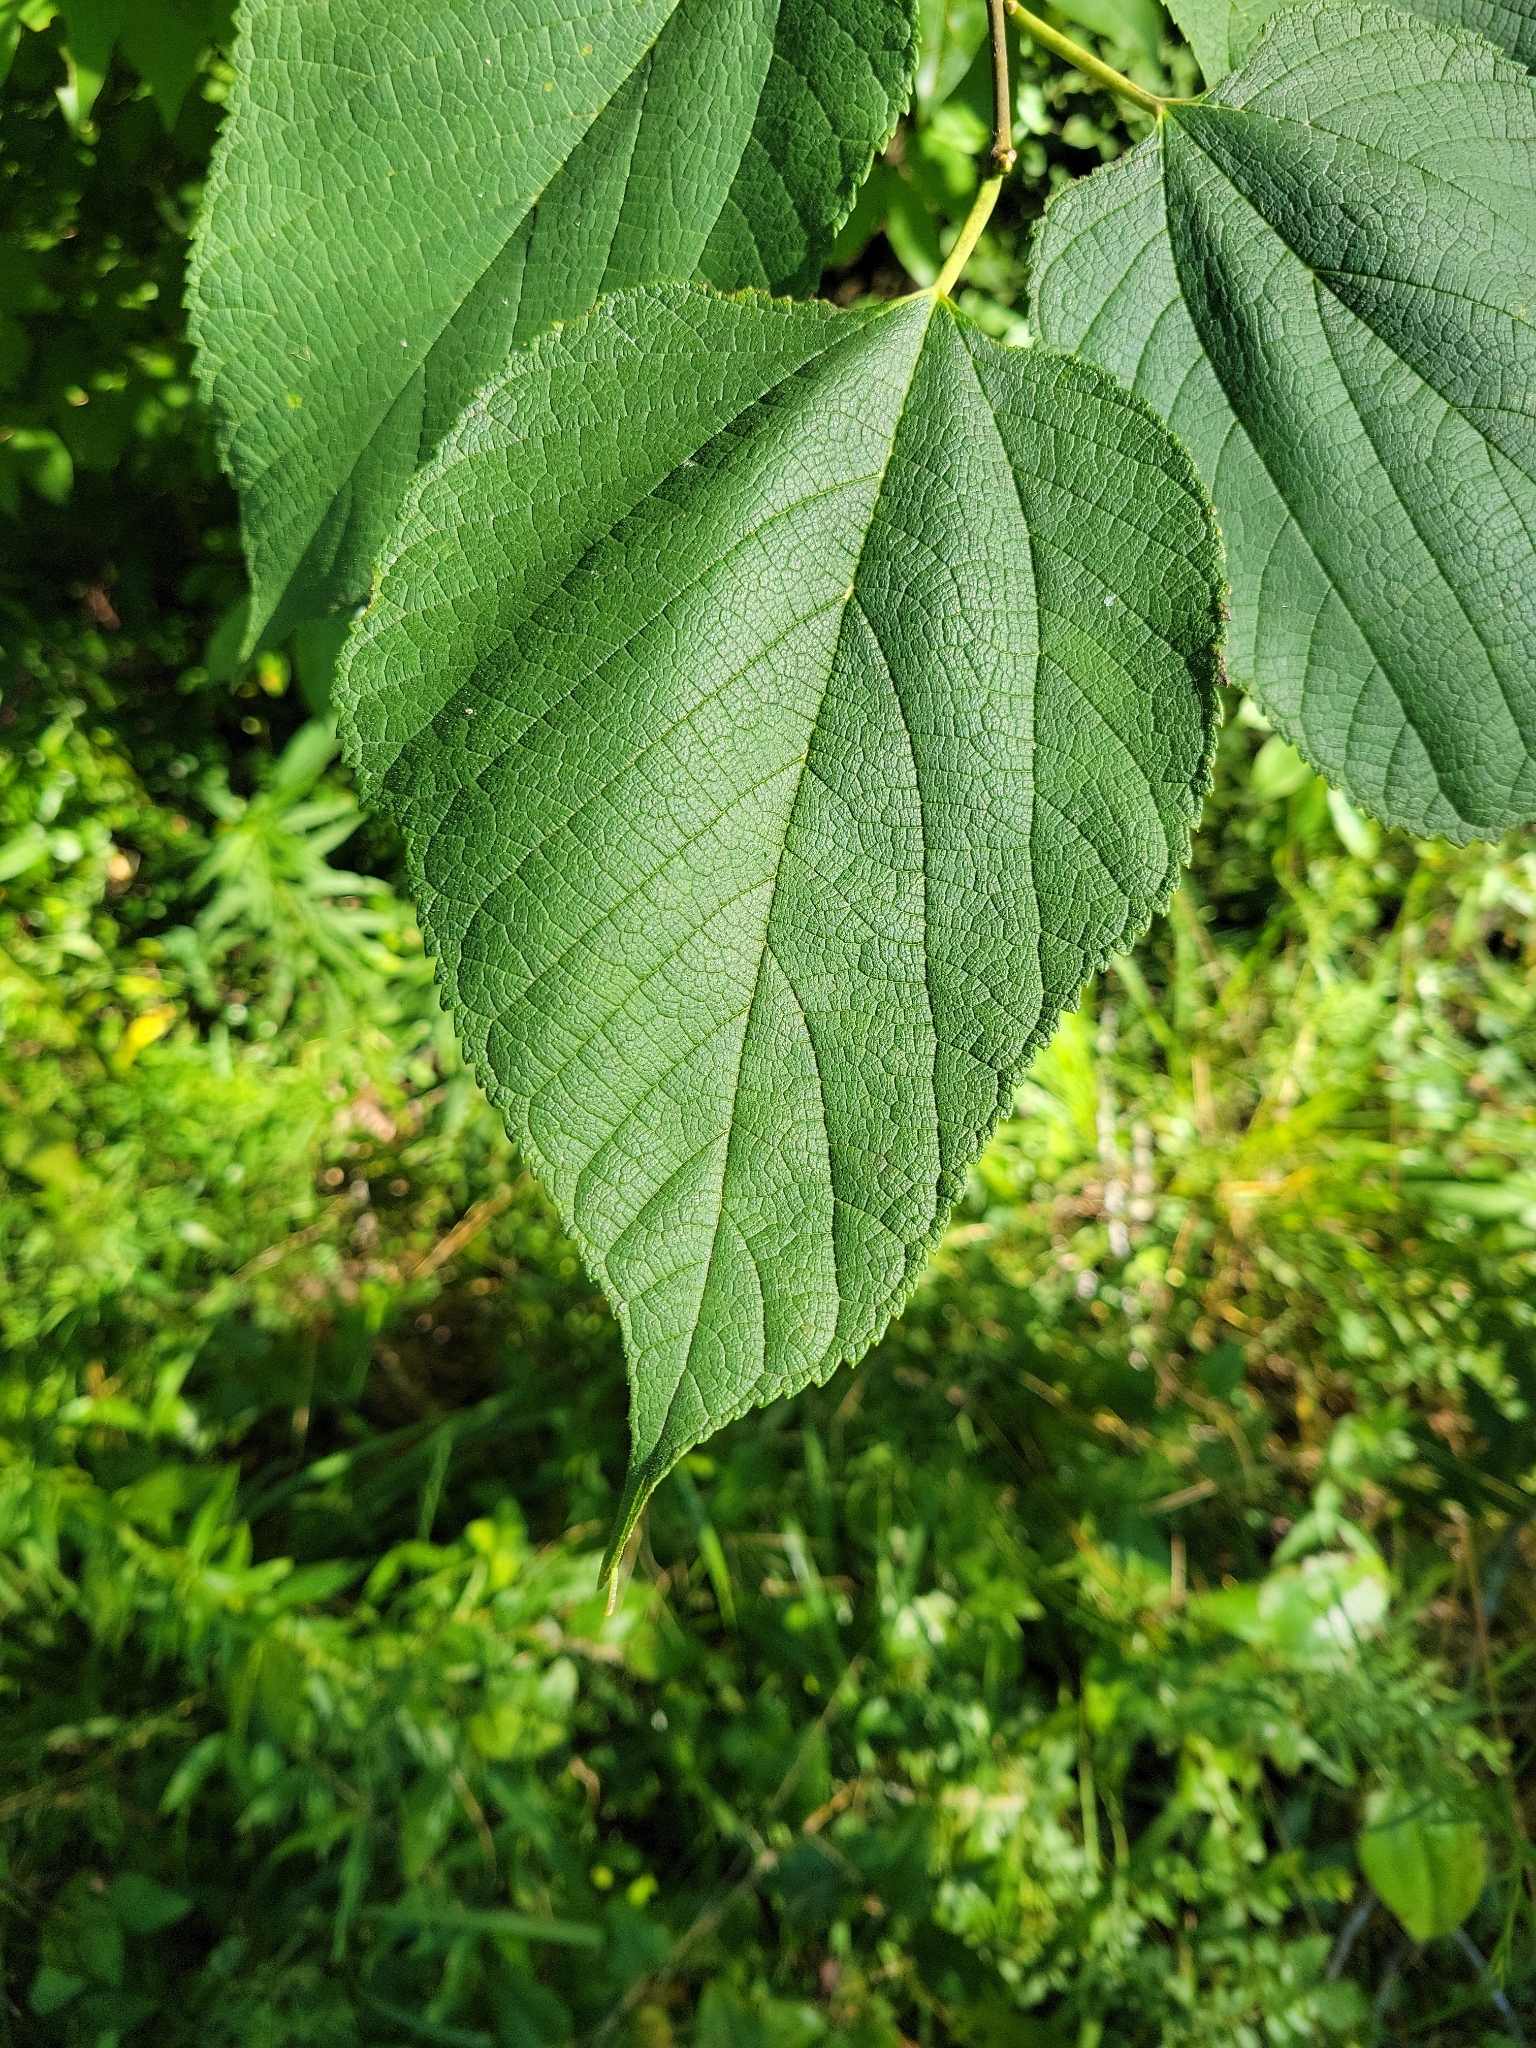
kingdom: Plantae
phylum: Tracheophyta
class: Magnoliopsida
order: Rosales
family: Moraceae
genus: Morus
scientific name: Morus rubra
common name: Red mulberry
